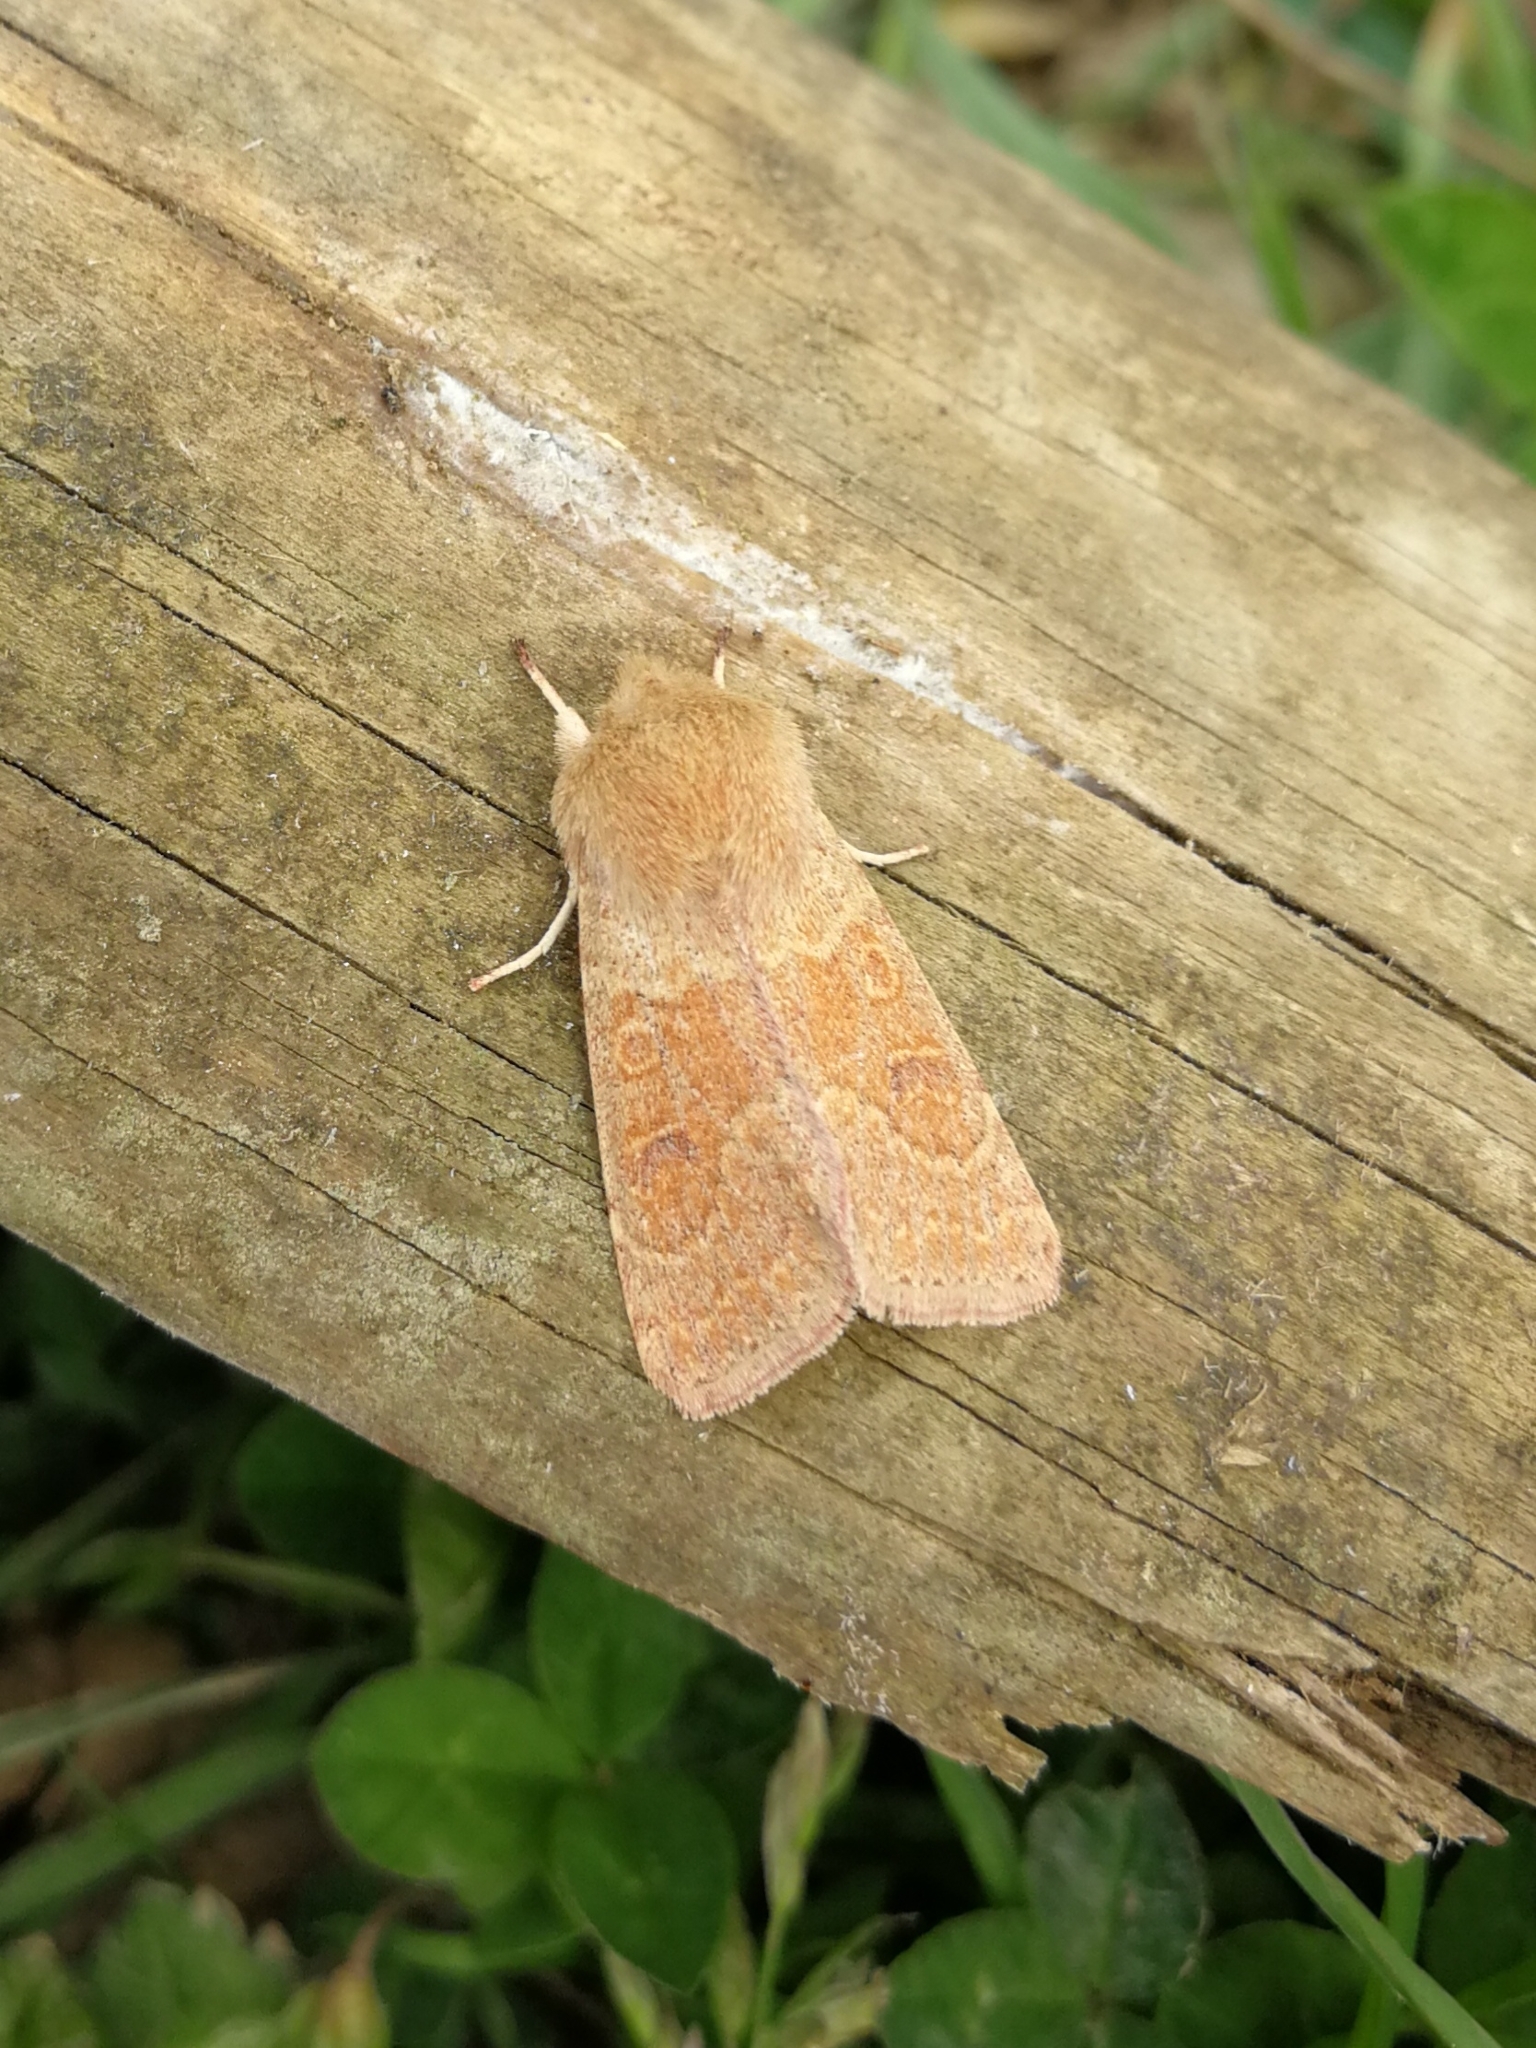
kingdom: Animalia
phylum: Arthropoda
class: Insecta
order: Lepidoptera
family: Noctuidae
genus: Orthosia
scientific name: Orthosia miniosa
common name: Blossom underwing
